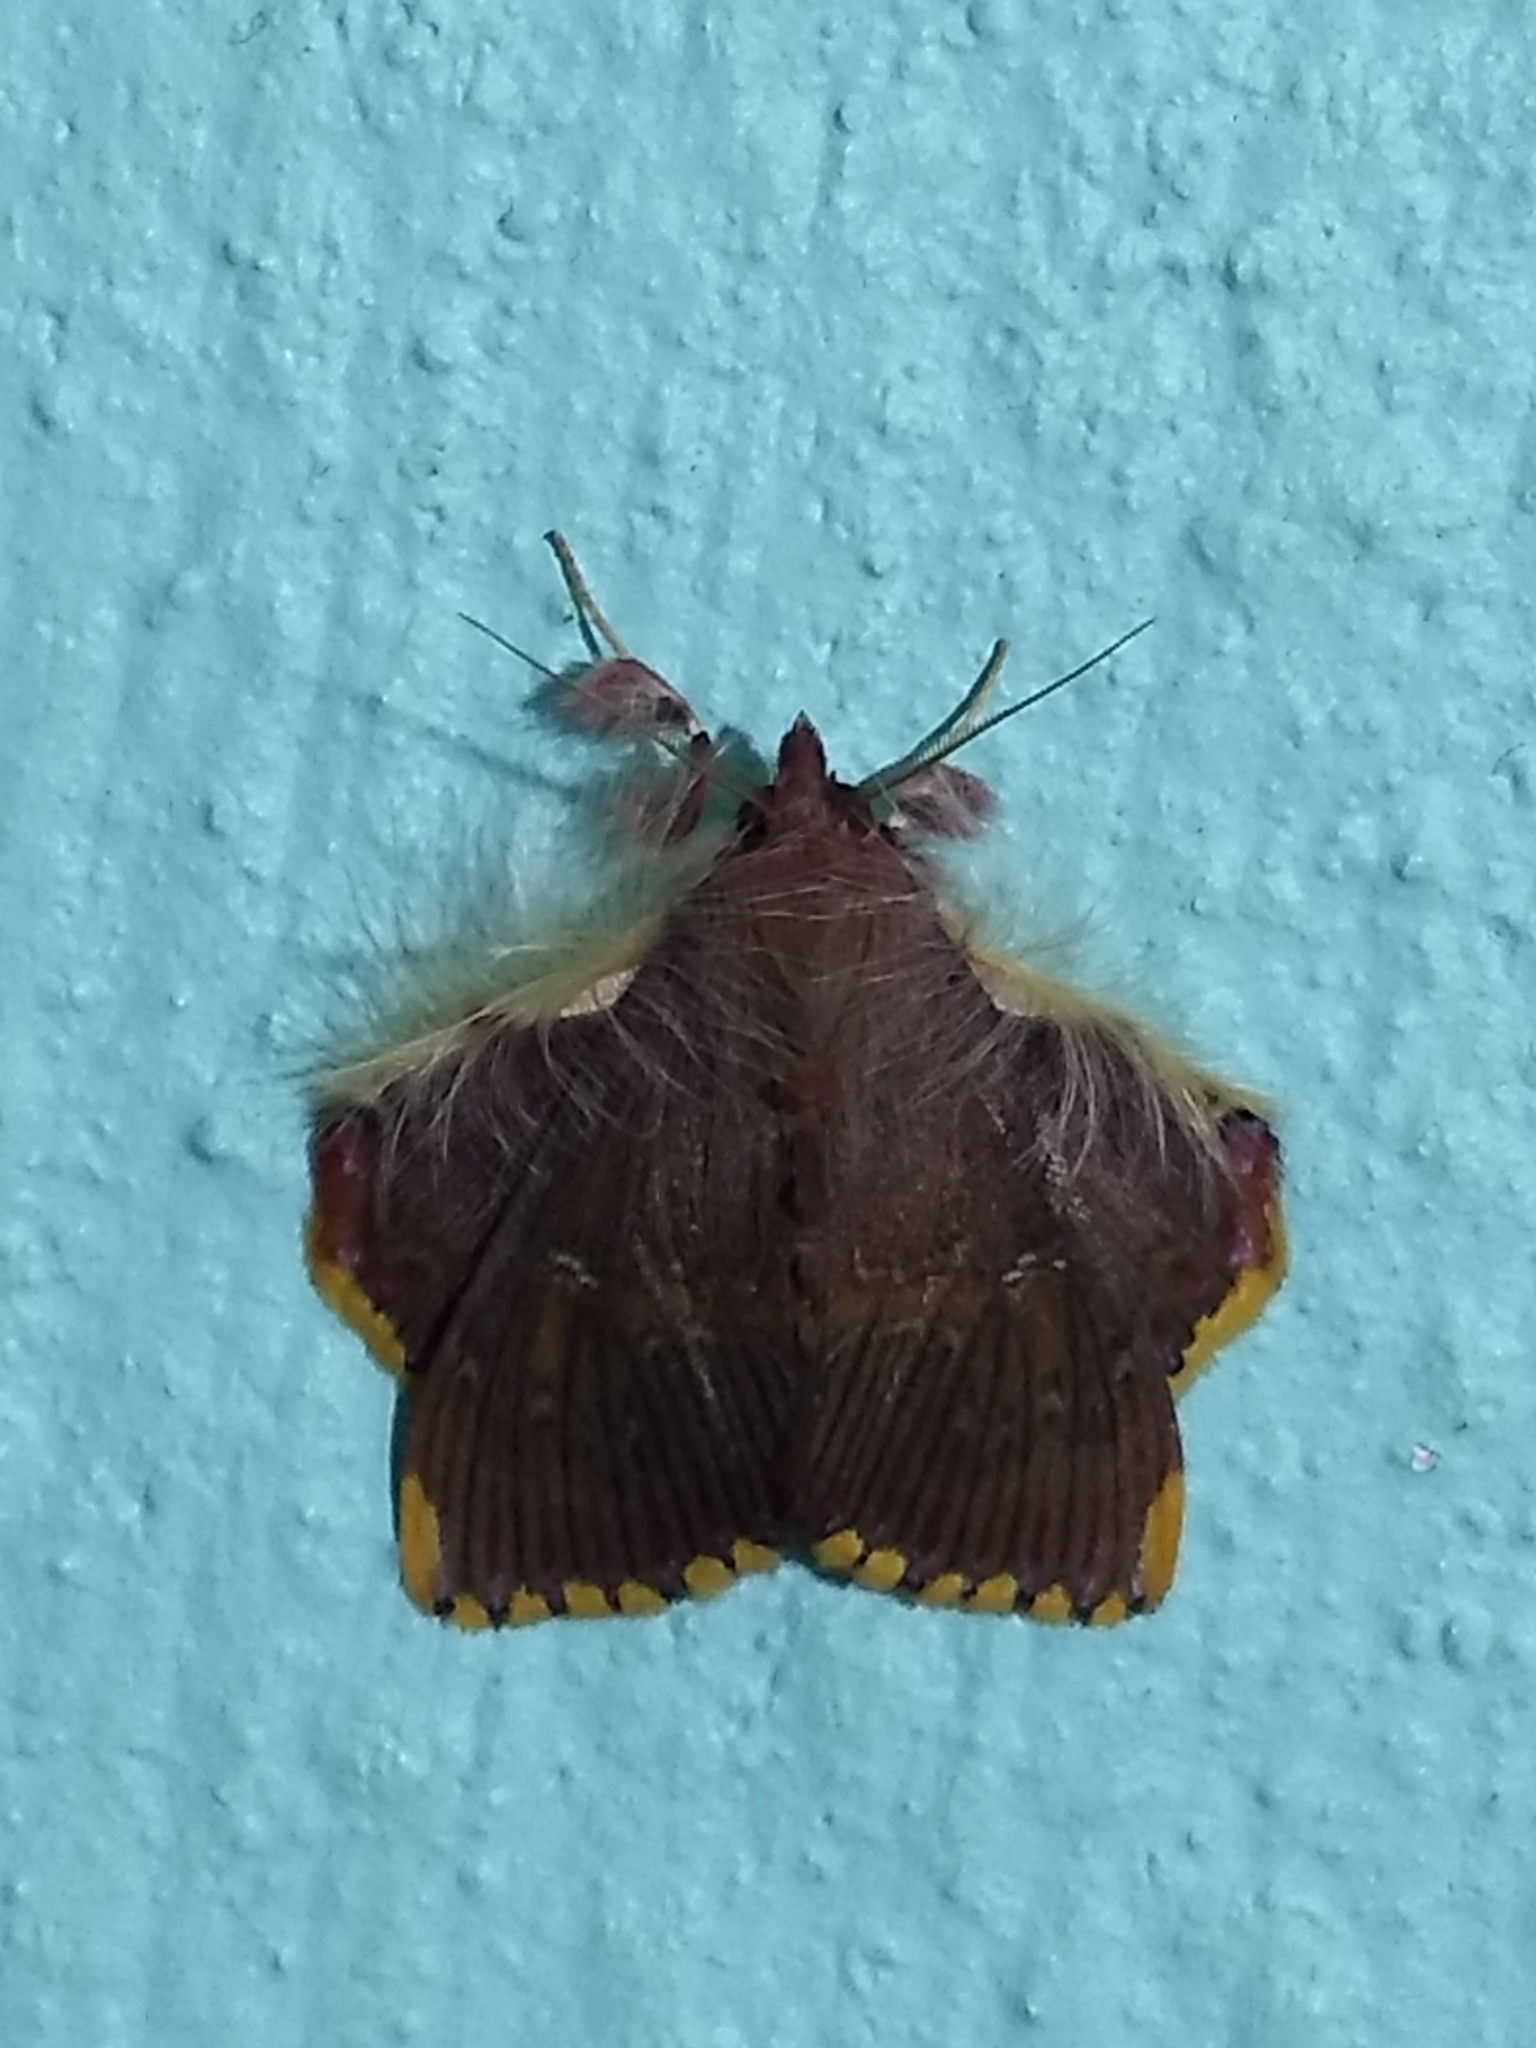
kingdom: Animalia
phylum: Arthropoda
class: Insecta
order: Lepidoptera
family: Erebidae
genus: Sosxetra
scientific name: Sosxetra grata
